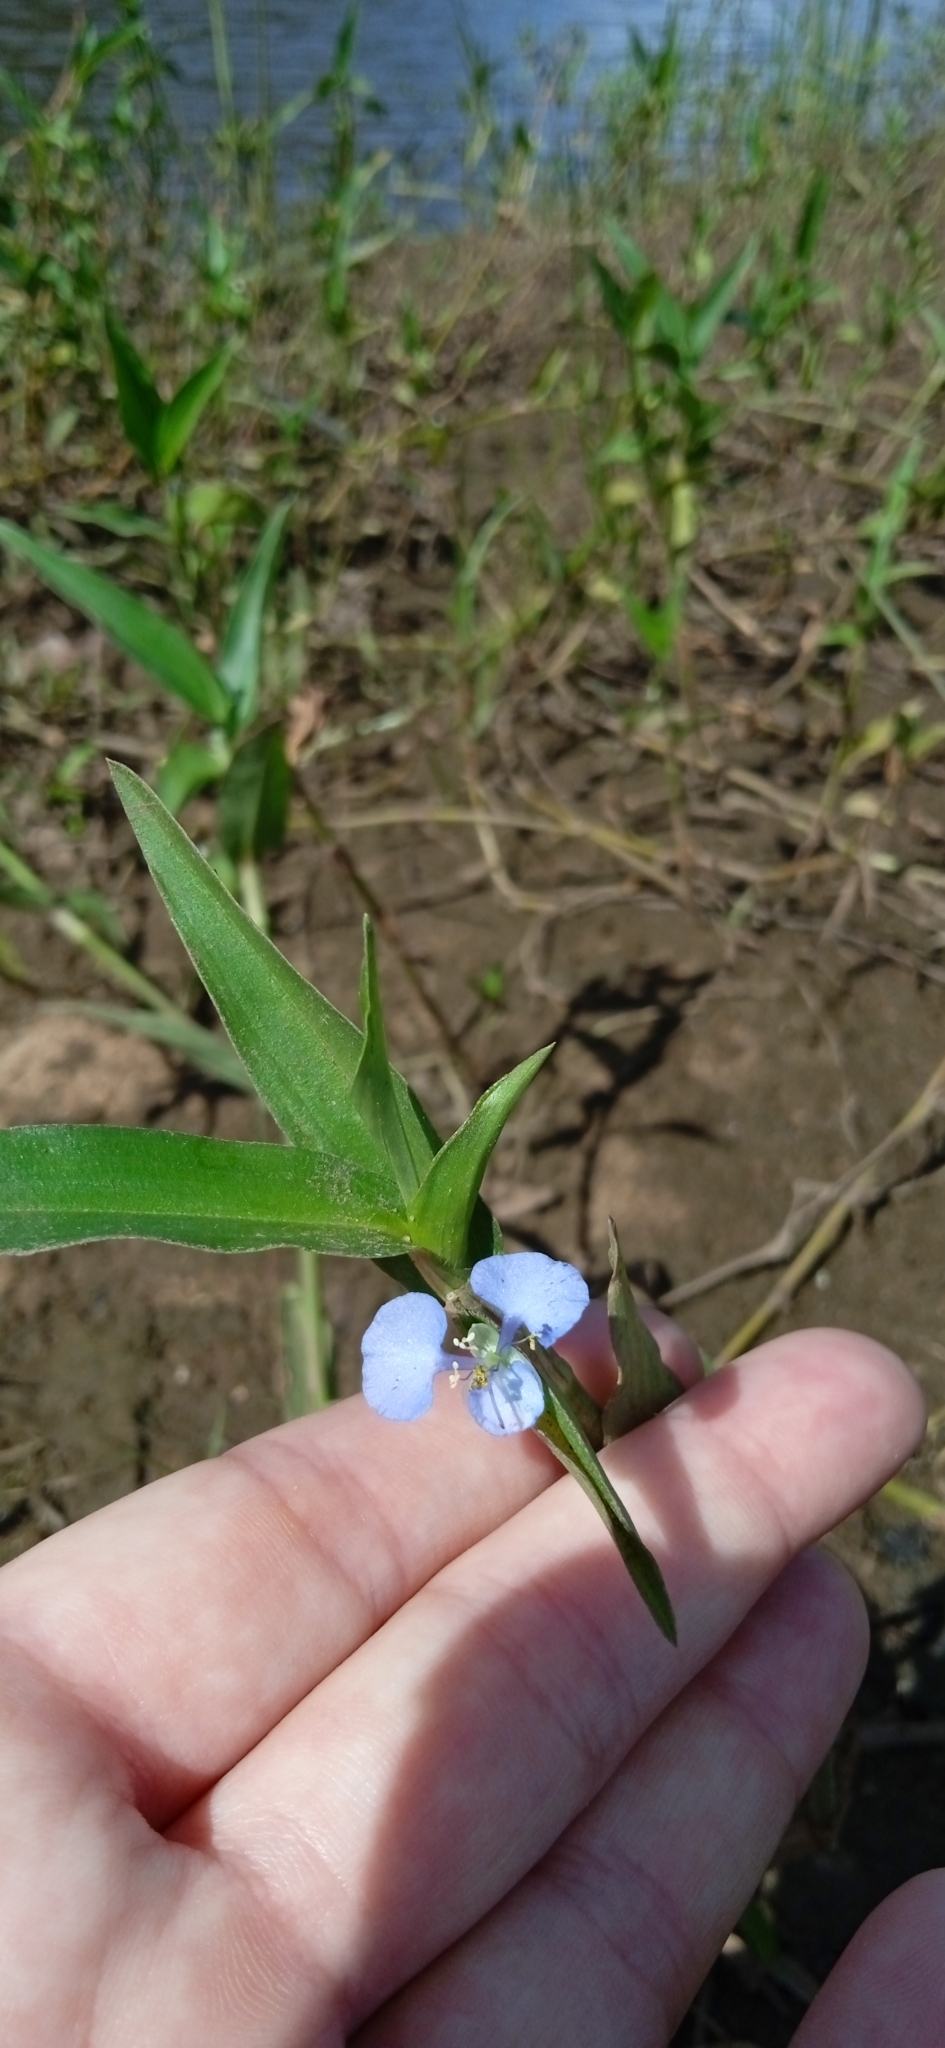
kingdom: Plantae
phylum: Tracheophyta
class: Liliopsida
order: Commelinales
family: Commelinaceae
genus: Commelina
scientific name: Commelina diffusa
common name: Climbing dayflower
